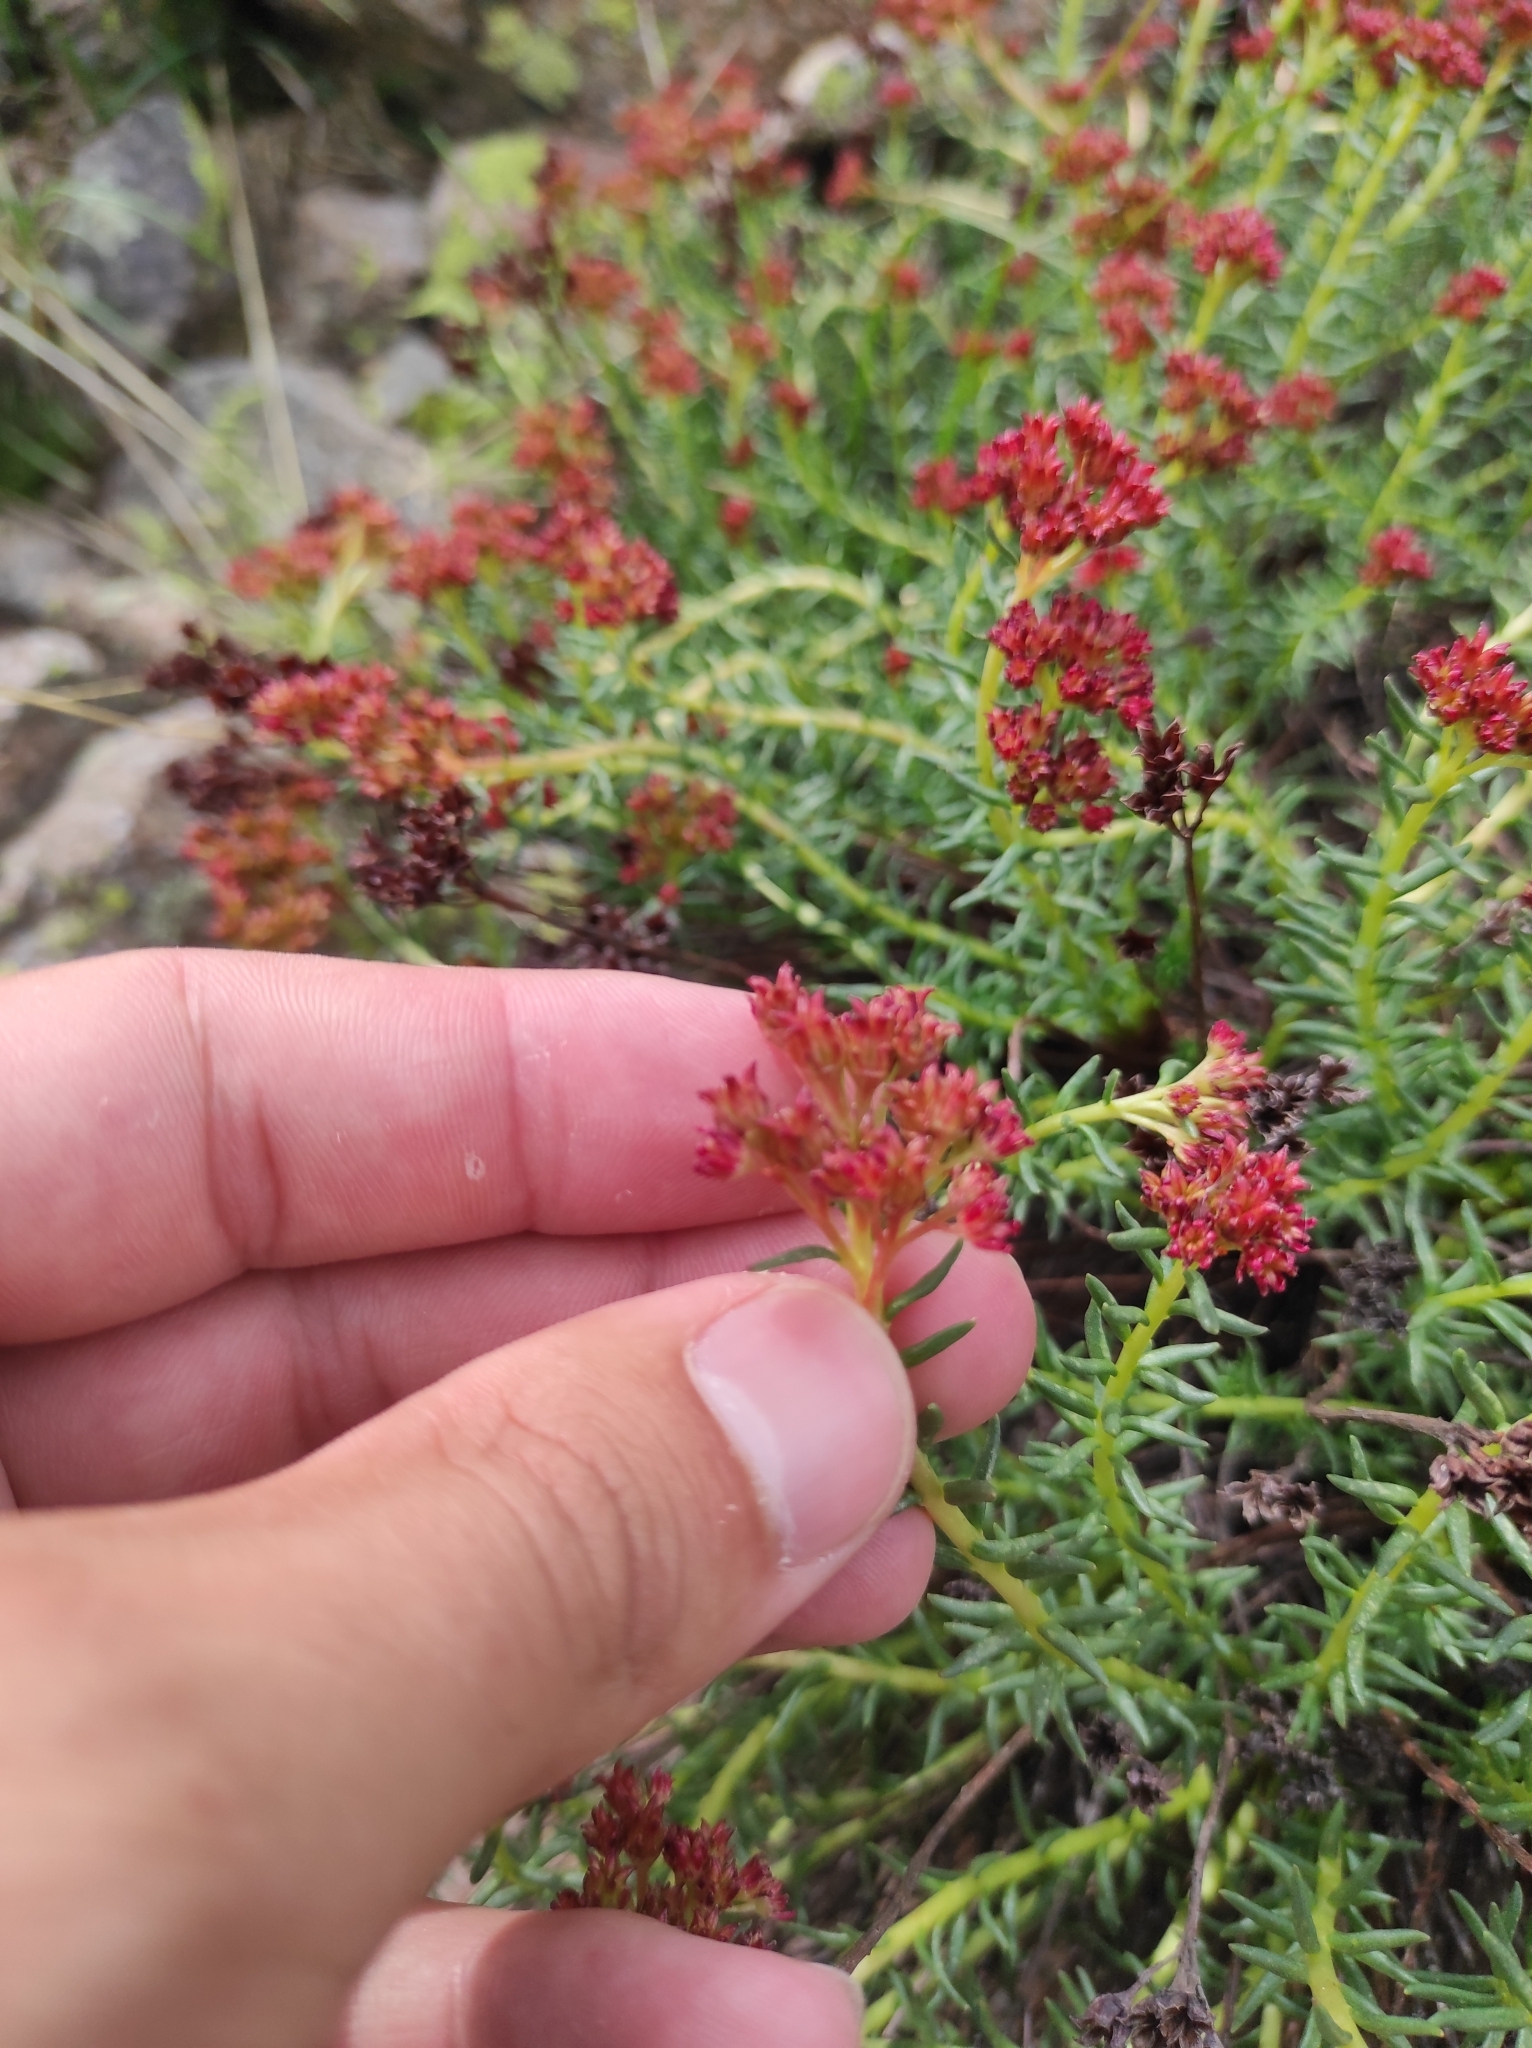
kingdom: Plantae
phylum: Tracheophyta
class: Magnoliopsida
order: Saxifragales
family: Crassulaceae
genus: Rhodiola
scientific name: Rhodiola coccinea
